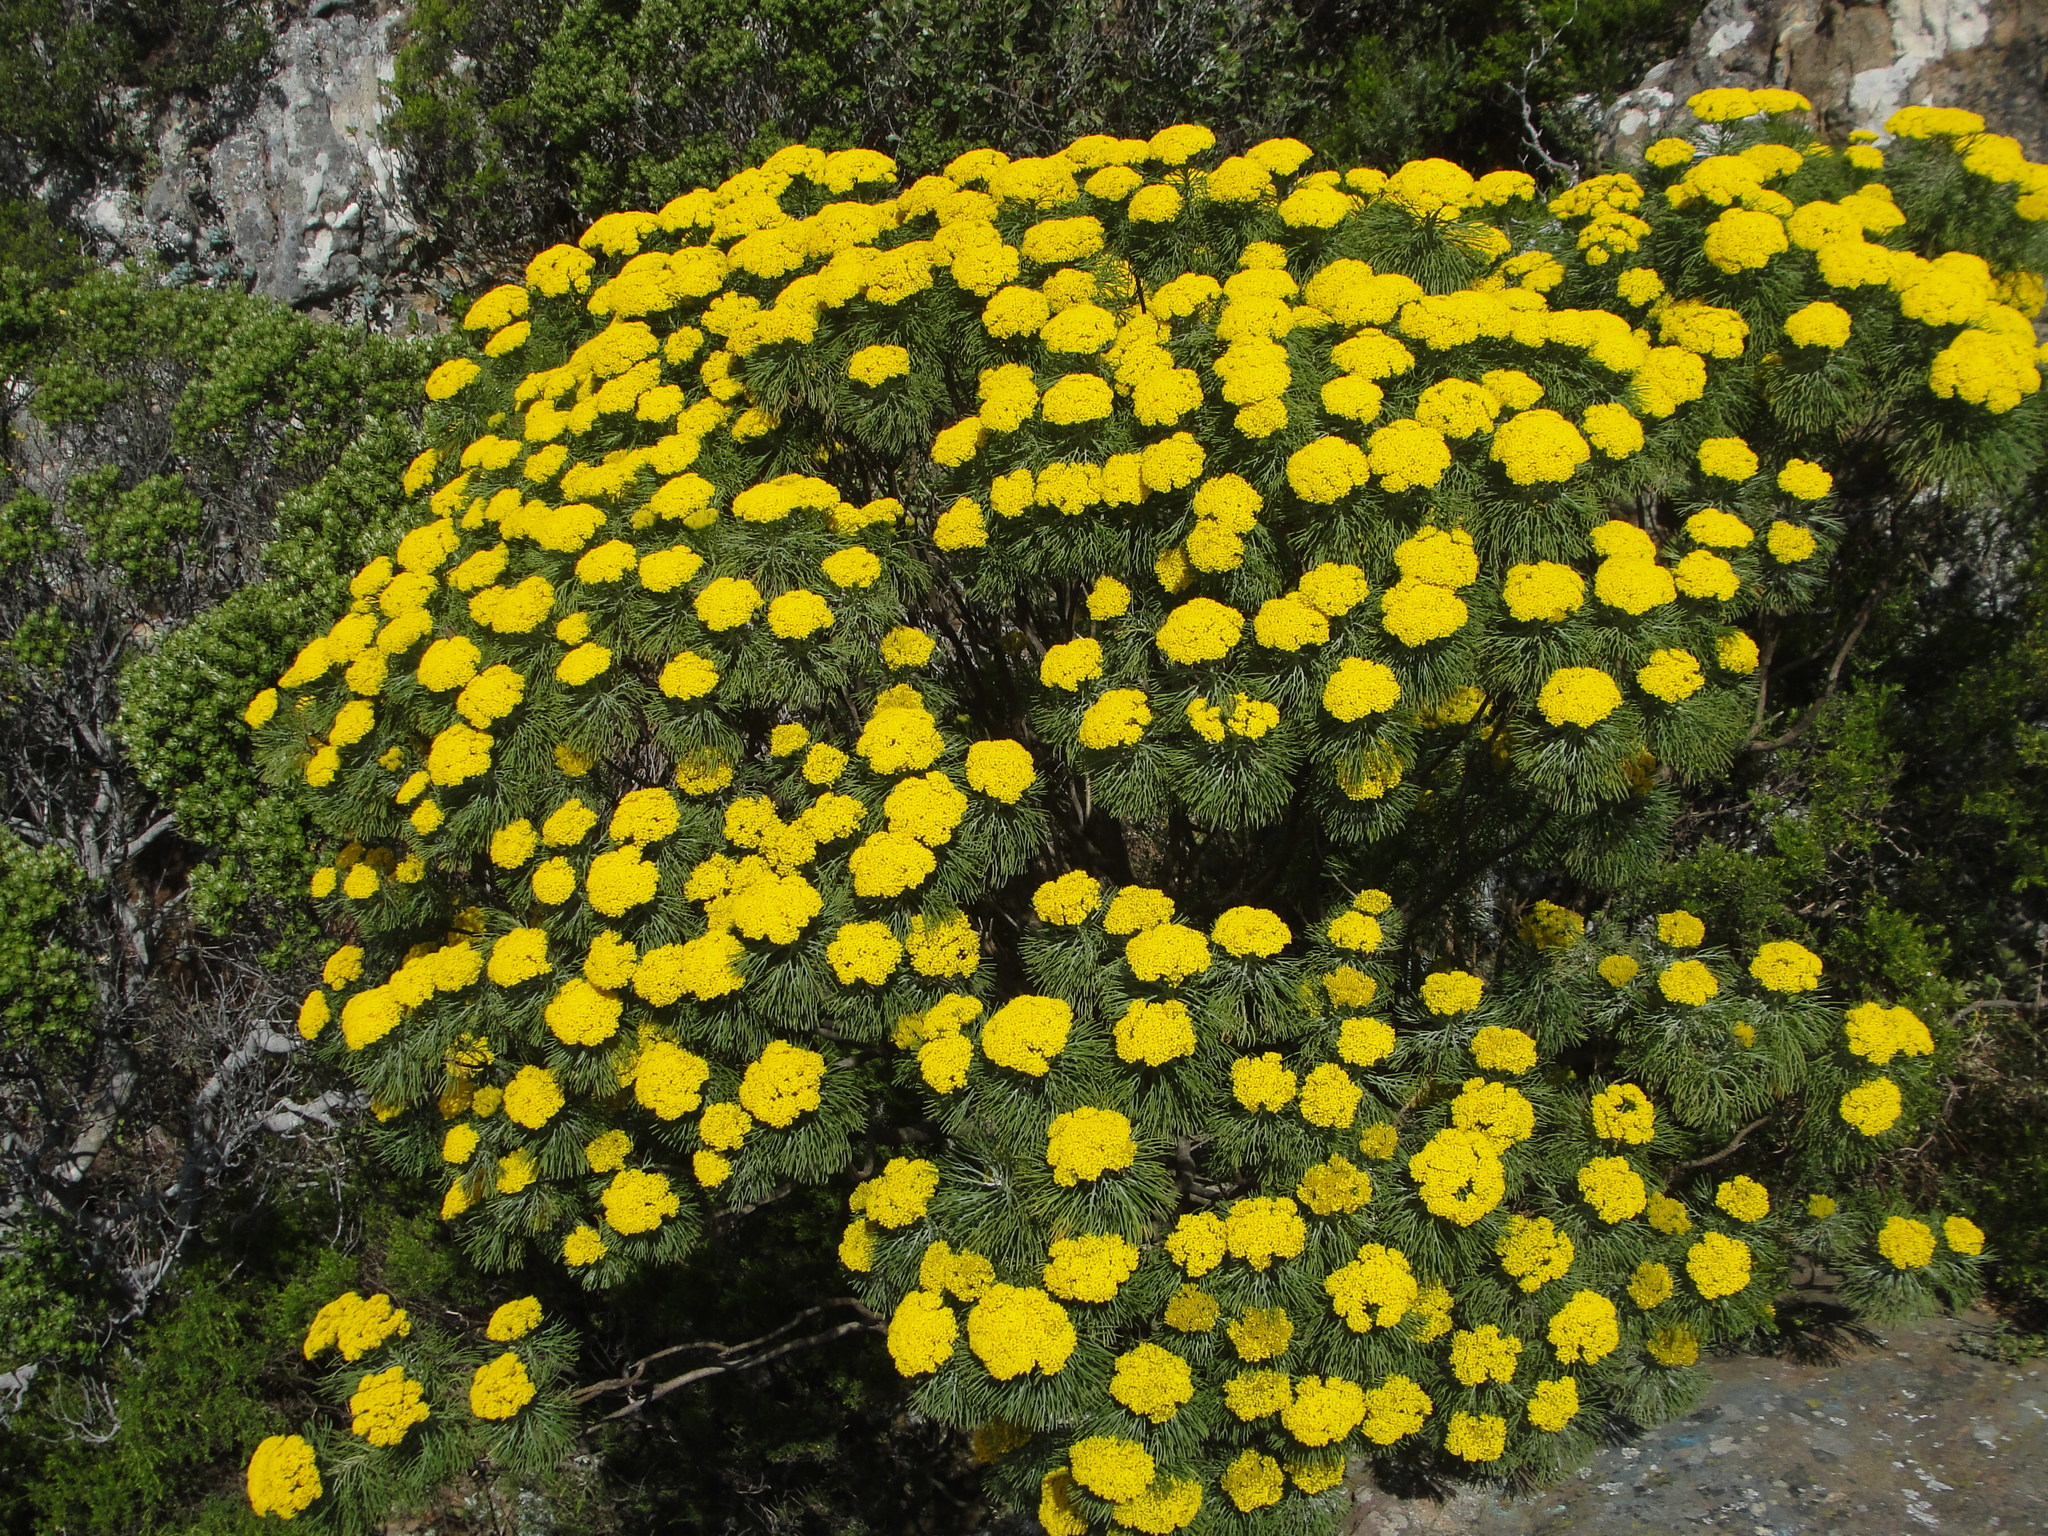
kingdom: Plantae
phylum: Tracheophyta
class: Magnoliopsida
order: Asterales
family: Asteraceae
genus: Hymenolepis
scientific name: Hymenolepis crithmifolia
